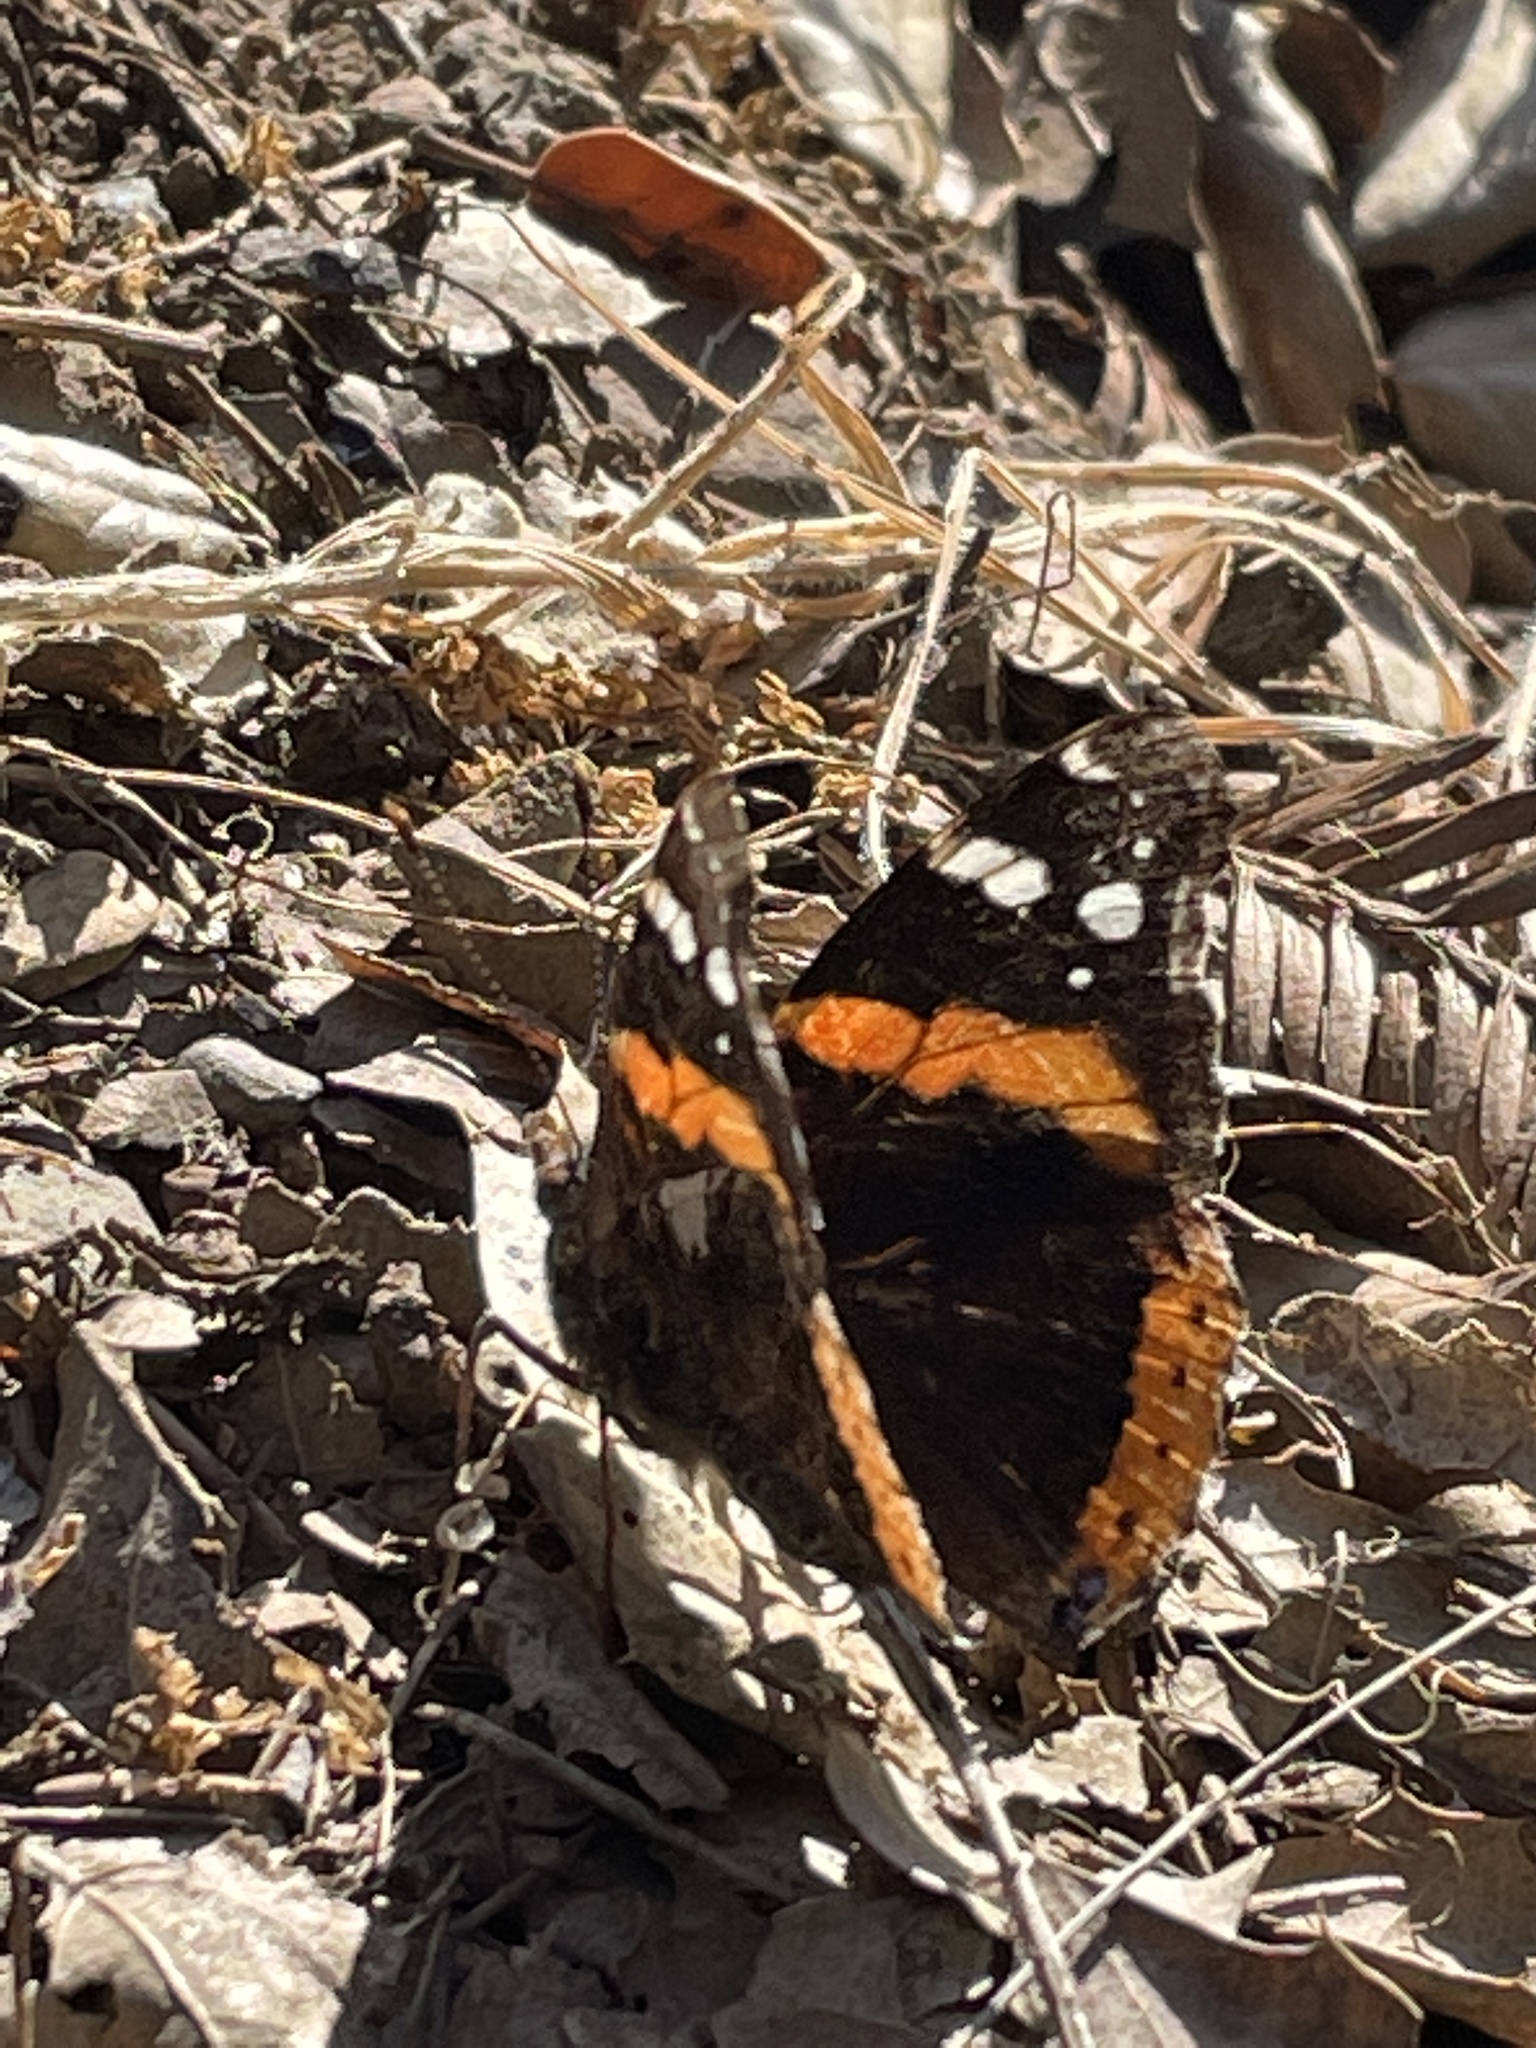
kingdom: Animalia
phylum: Arthropoda
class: Insecta
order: Lepidoptera
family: Nymphalidae
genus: Vanessa
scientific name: Vanessa atalanta
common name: Red admiral
